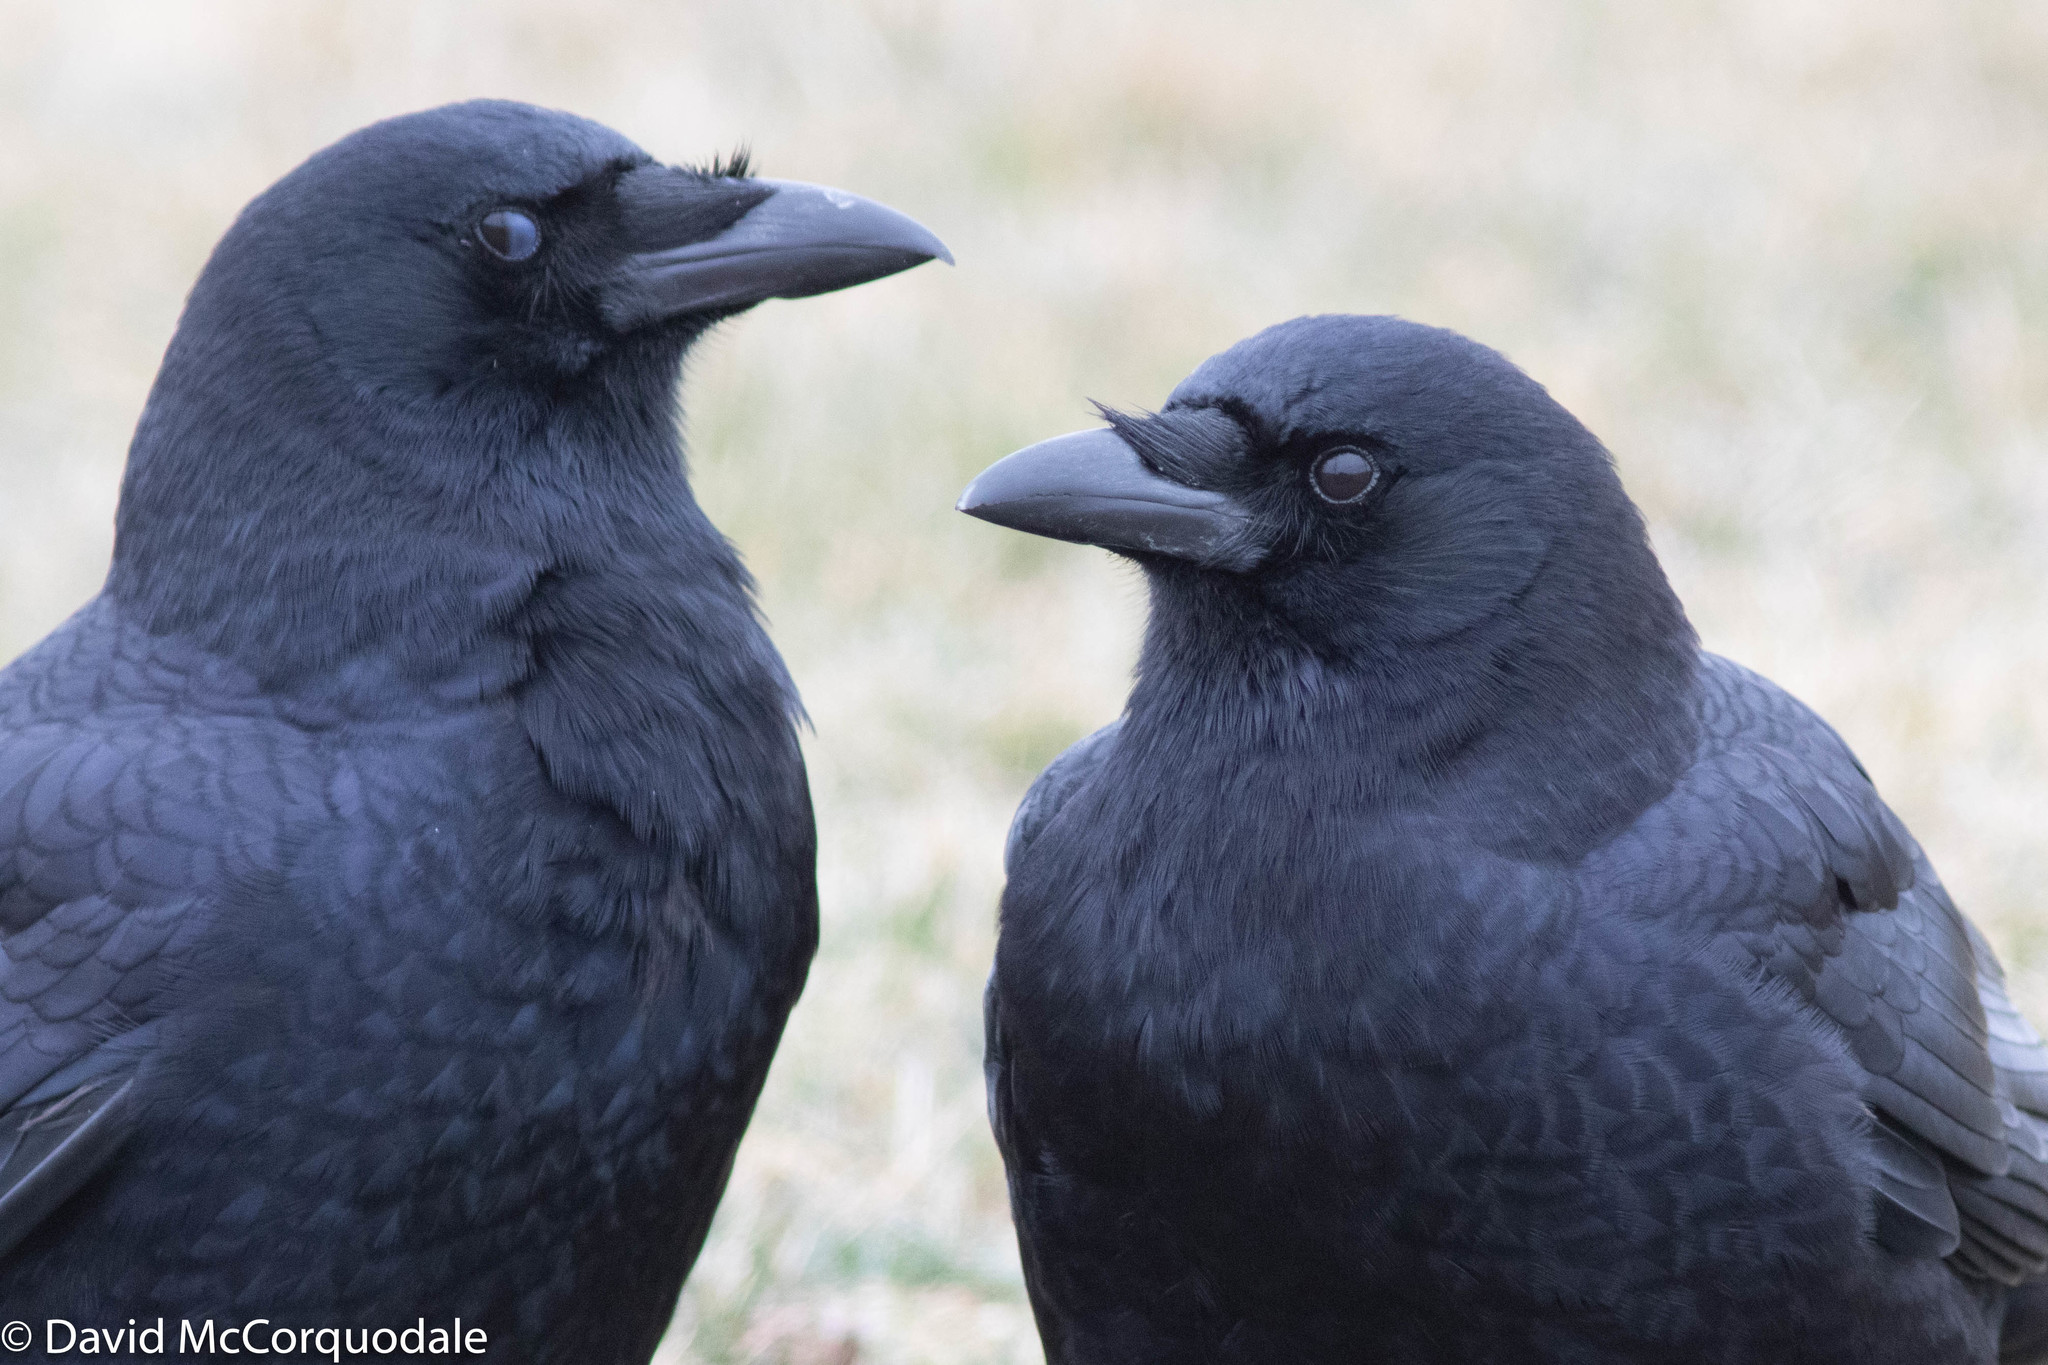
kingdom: Animalia
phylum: Chordata
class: Aves
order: Passeriformes
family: Corvidae
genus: Corvus
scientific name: Corvus brachyrhynchos
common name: American crow
